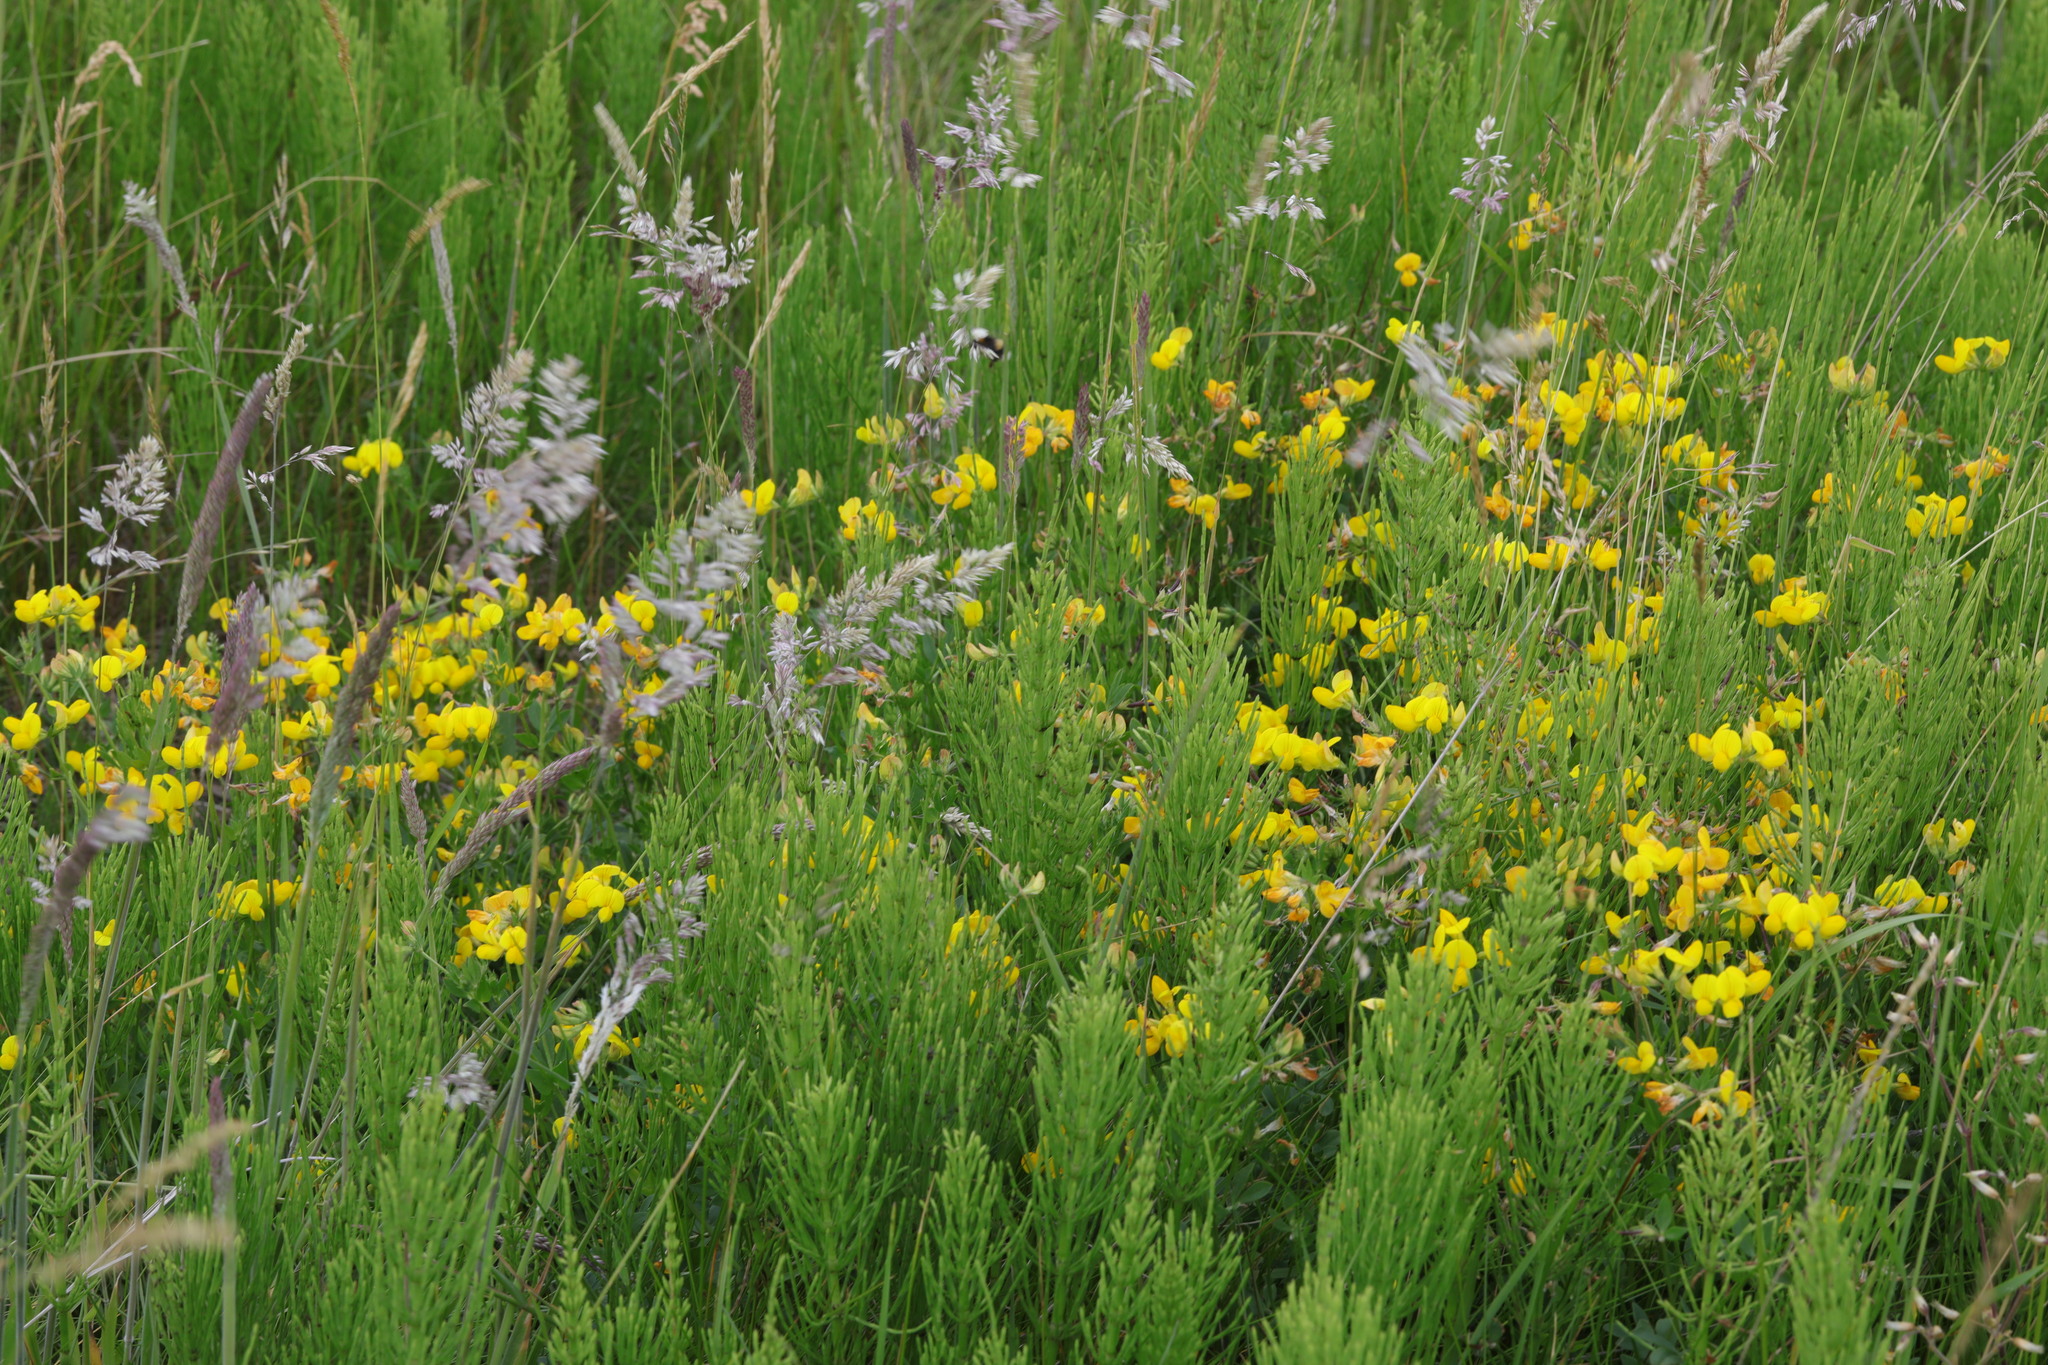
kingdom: Plantae
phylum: Tracheophyta
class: Magnoliopsida
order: Fabales
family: Fabaceae
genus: Lotus
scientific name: Lotus corniculatus
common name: Common bird's-foot-trefoil
